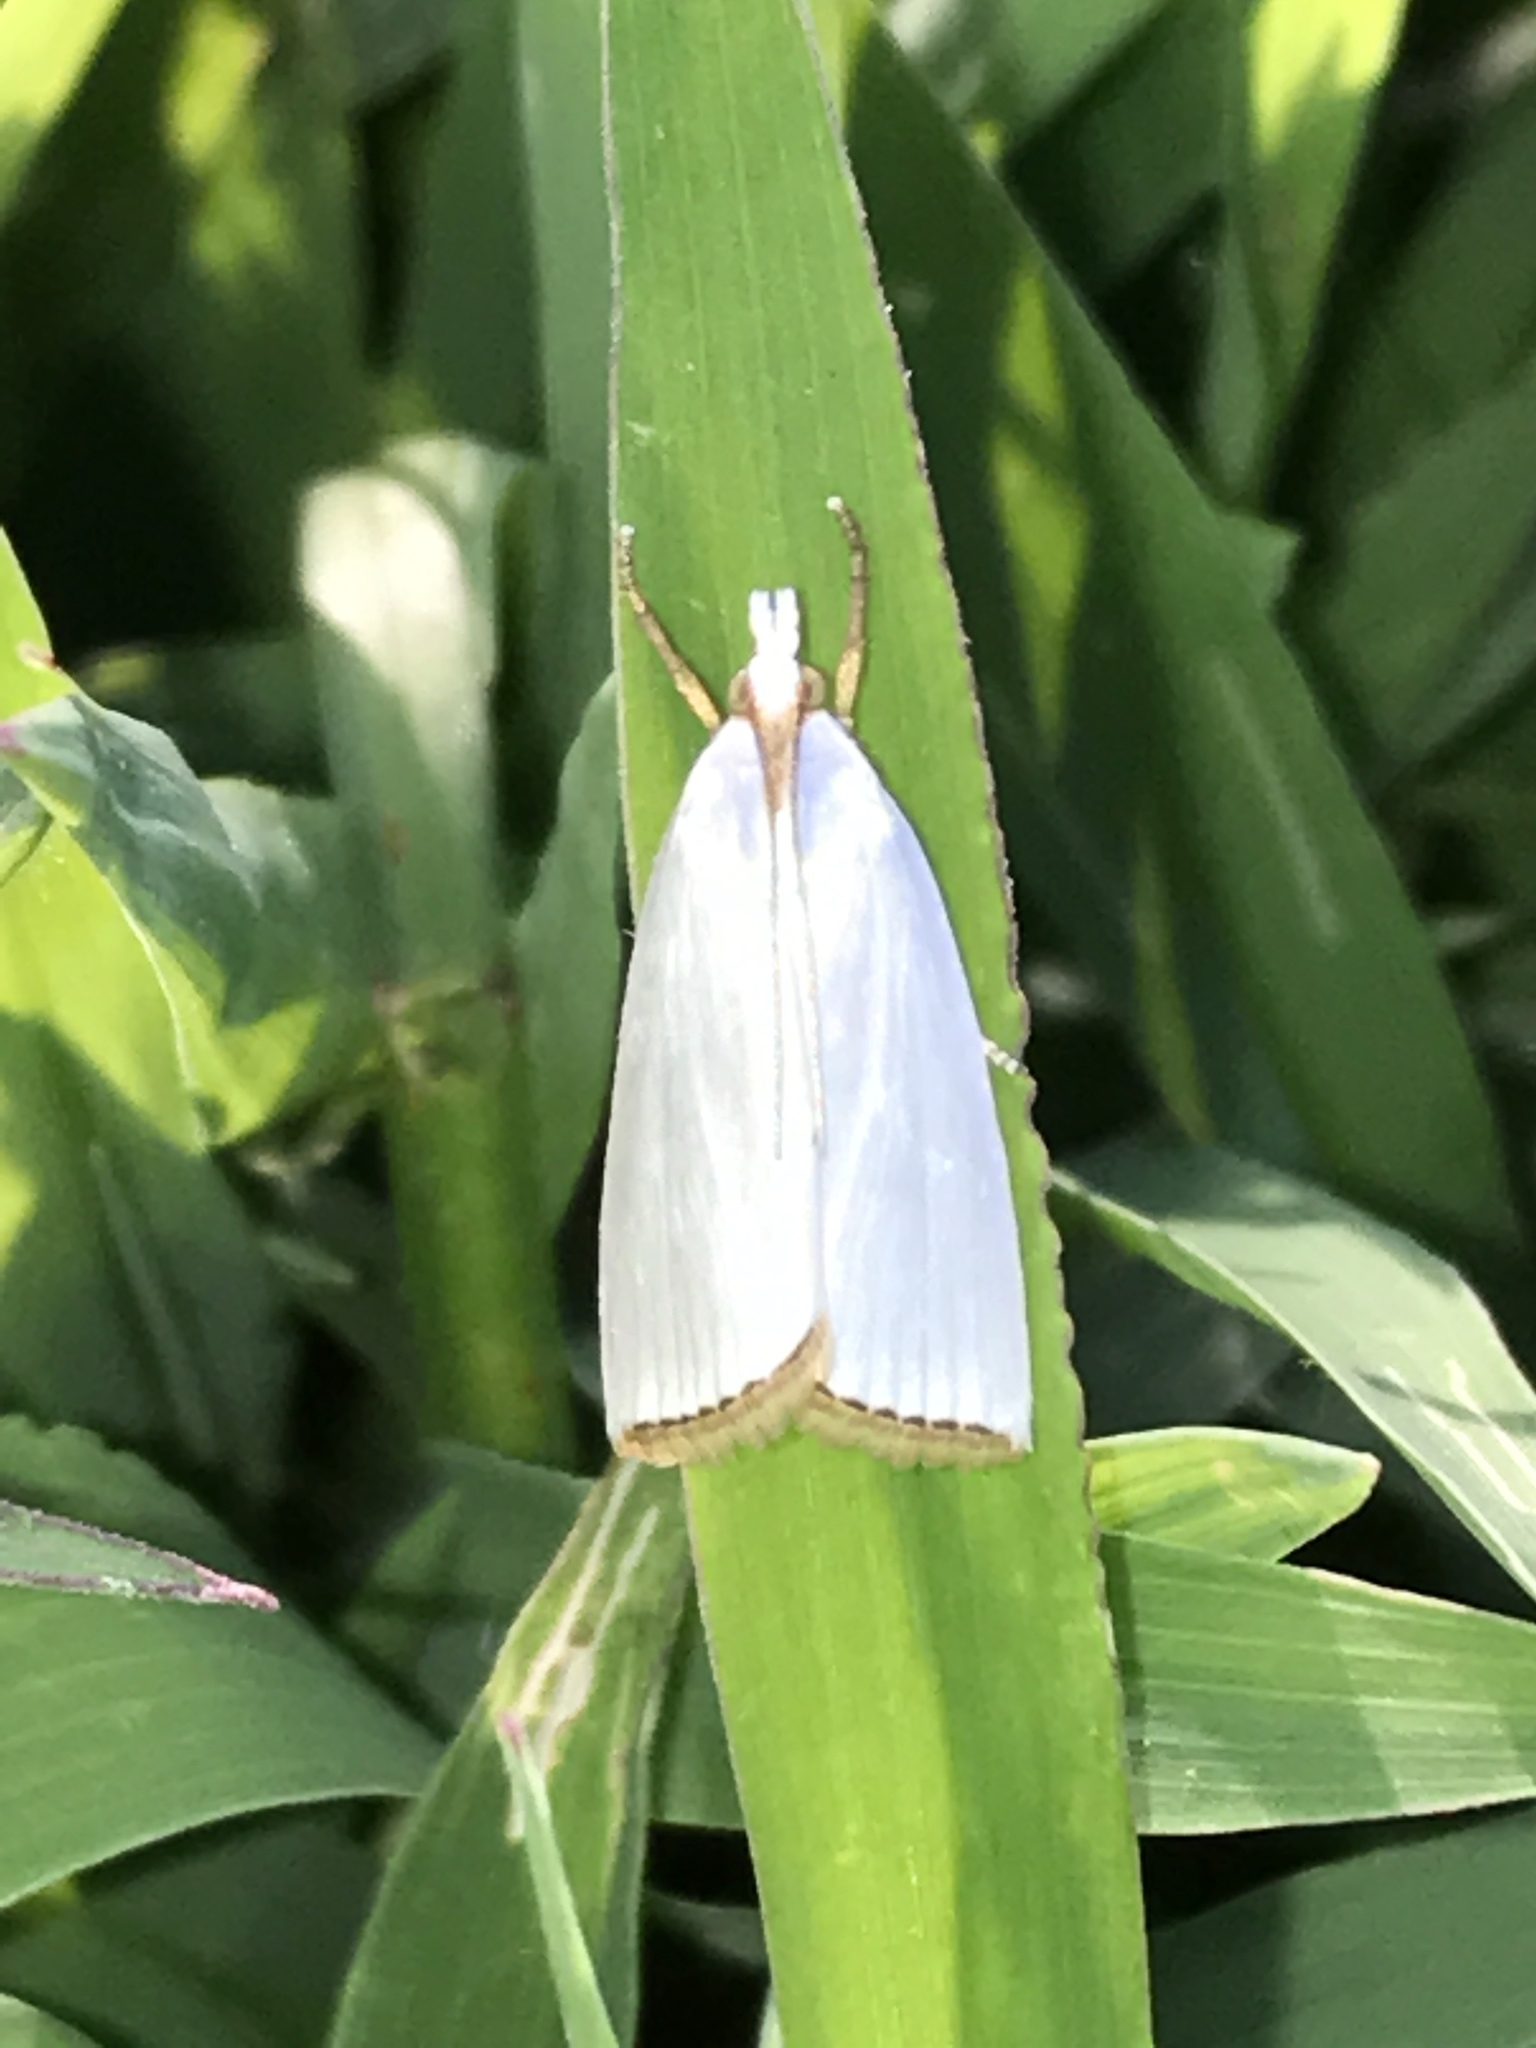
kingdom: Animalia
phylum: Arthropoda
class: Insecta
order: Lepidoptera
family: Crambidae
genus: Argyria
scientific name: Argyria nivalis
